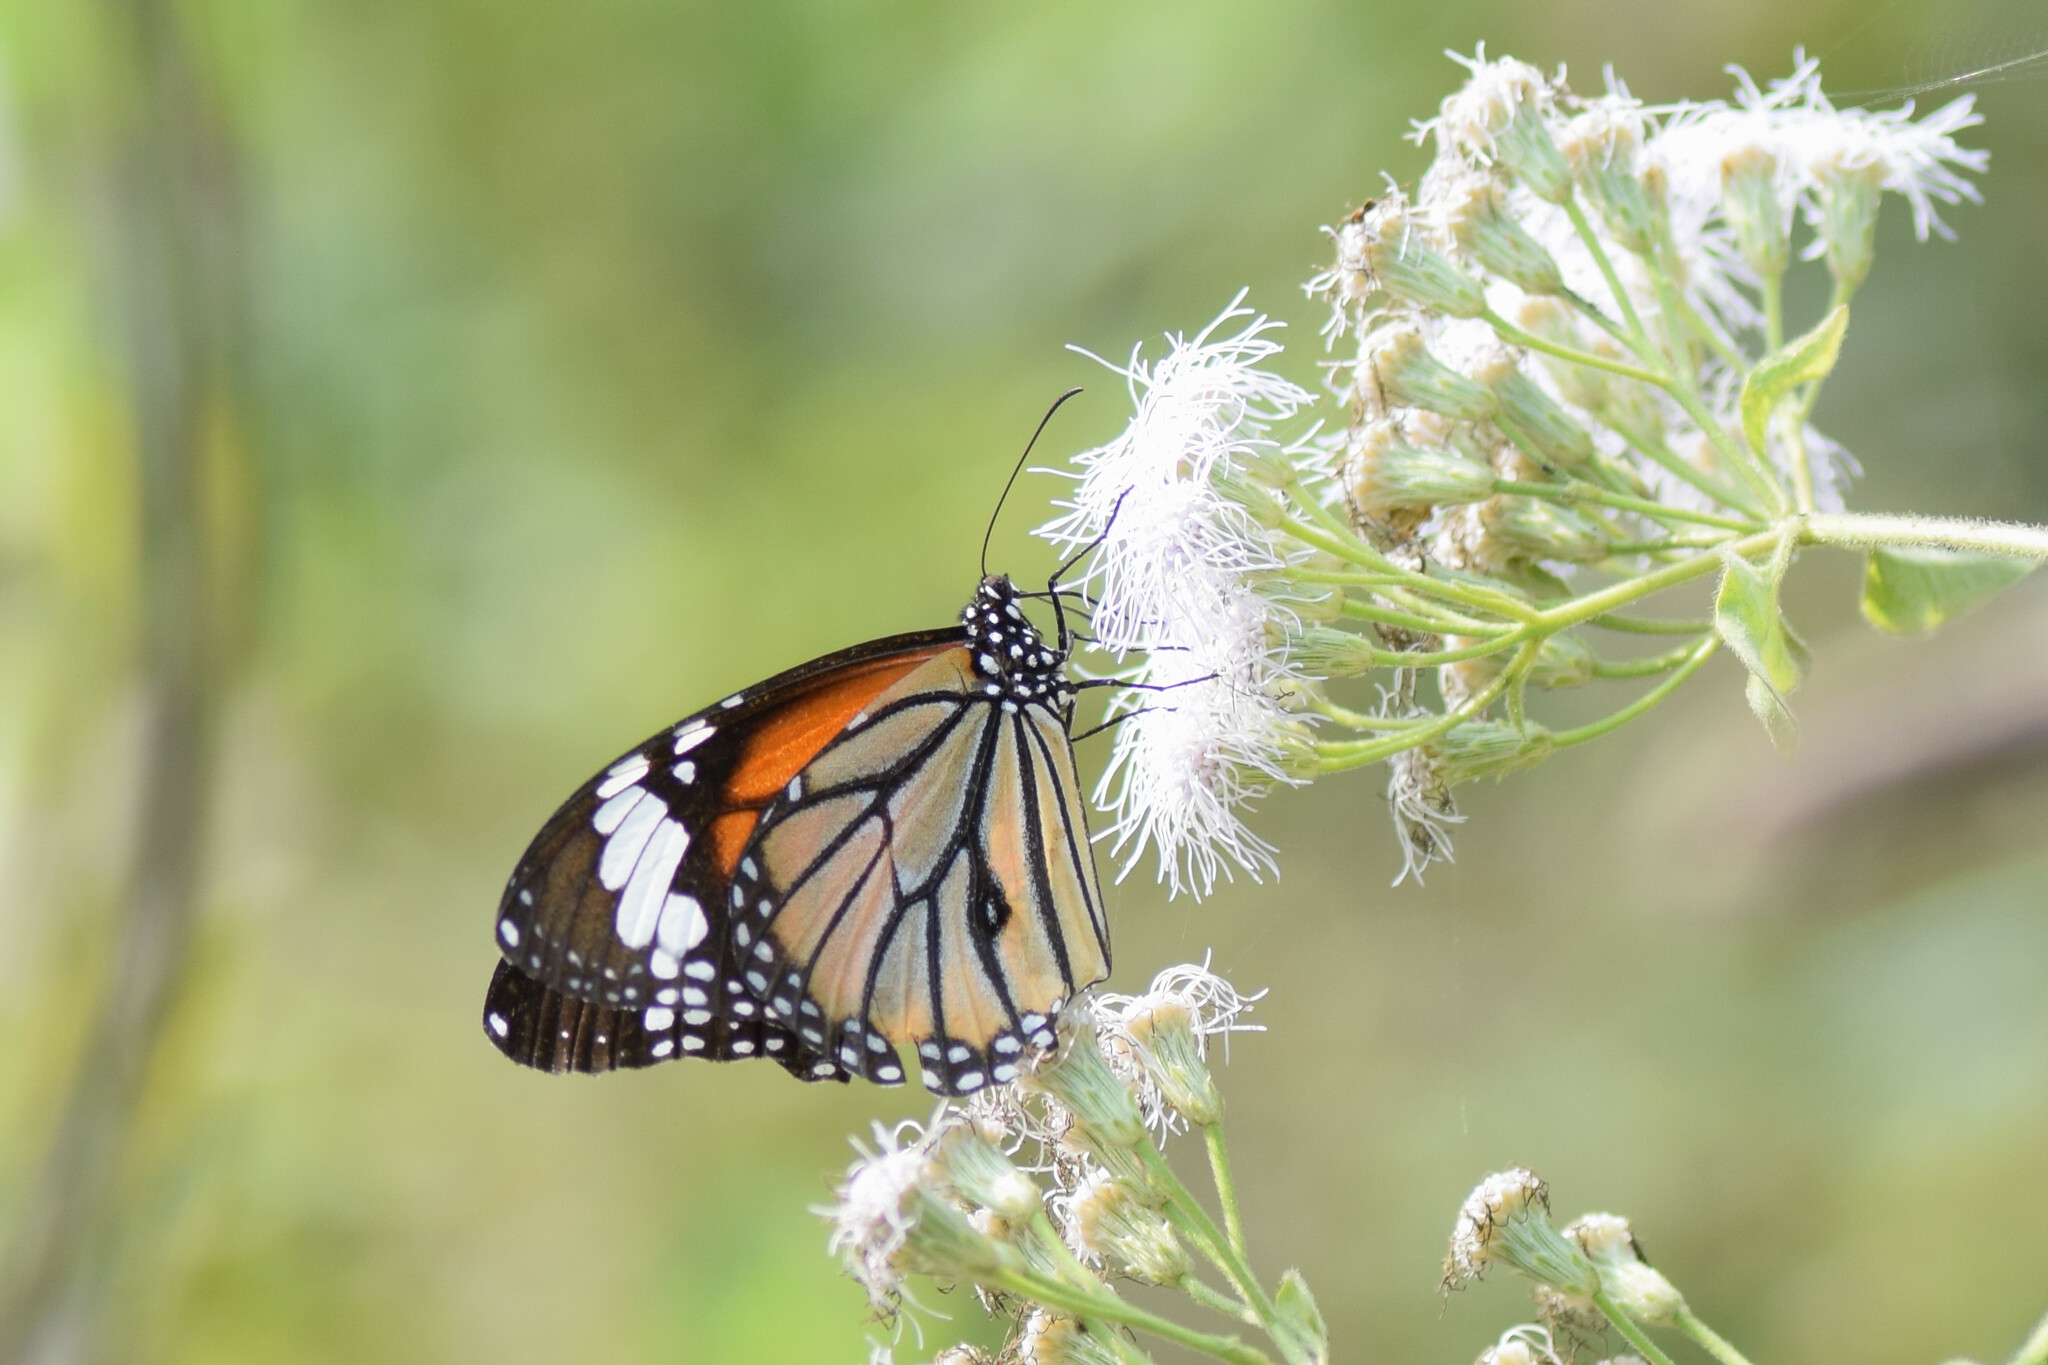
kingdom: Animalia
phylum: Arthropoda
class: Insecta
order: Lepidoptera
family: Nymphalidae
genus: Danaus
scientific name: Danaus genutia
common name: Common tiger butterfly
